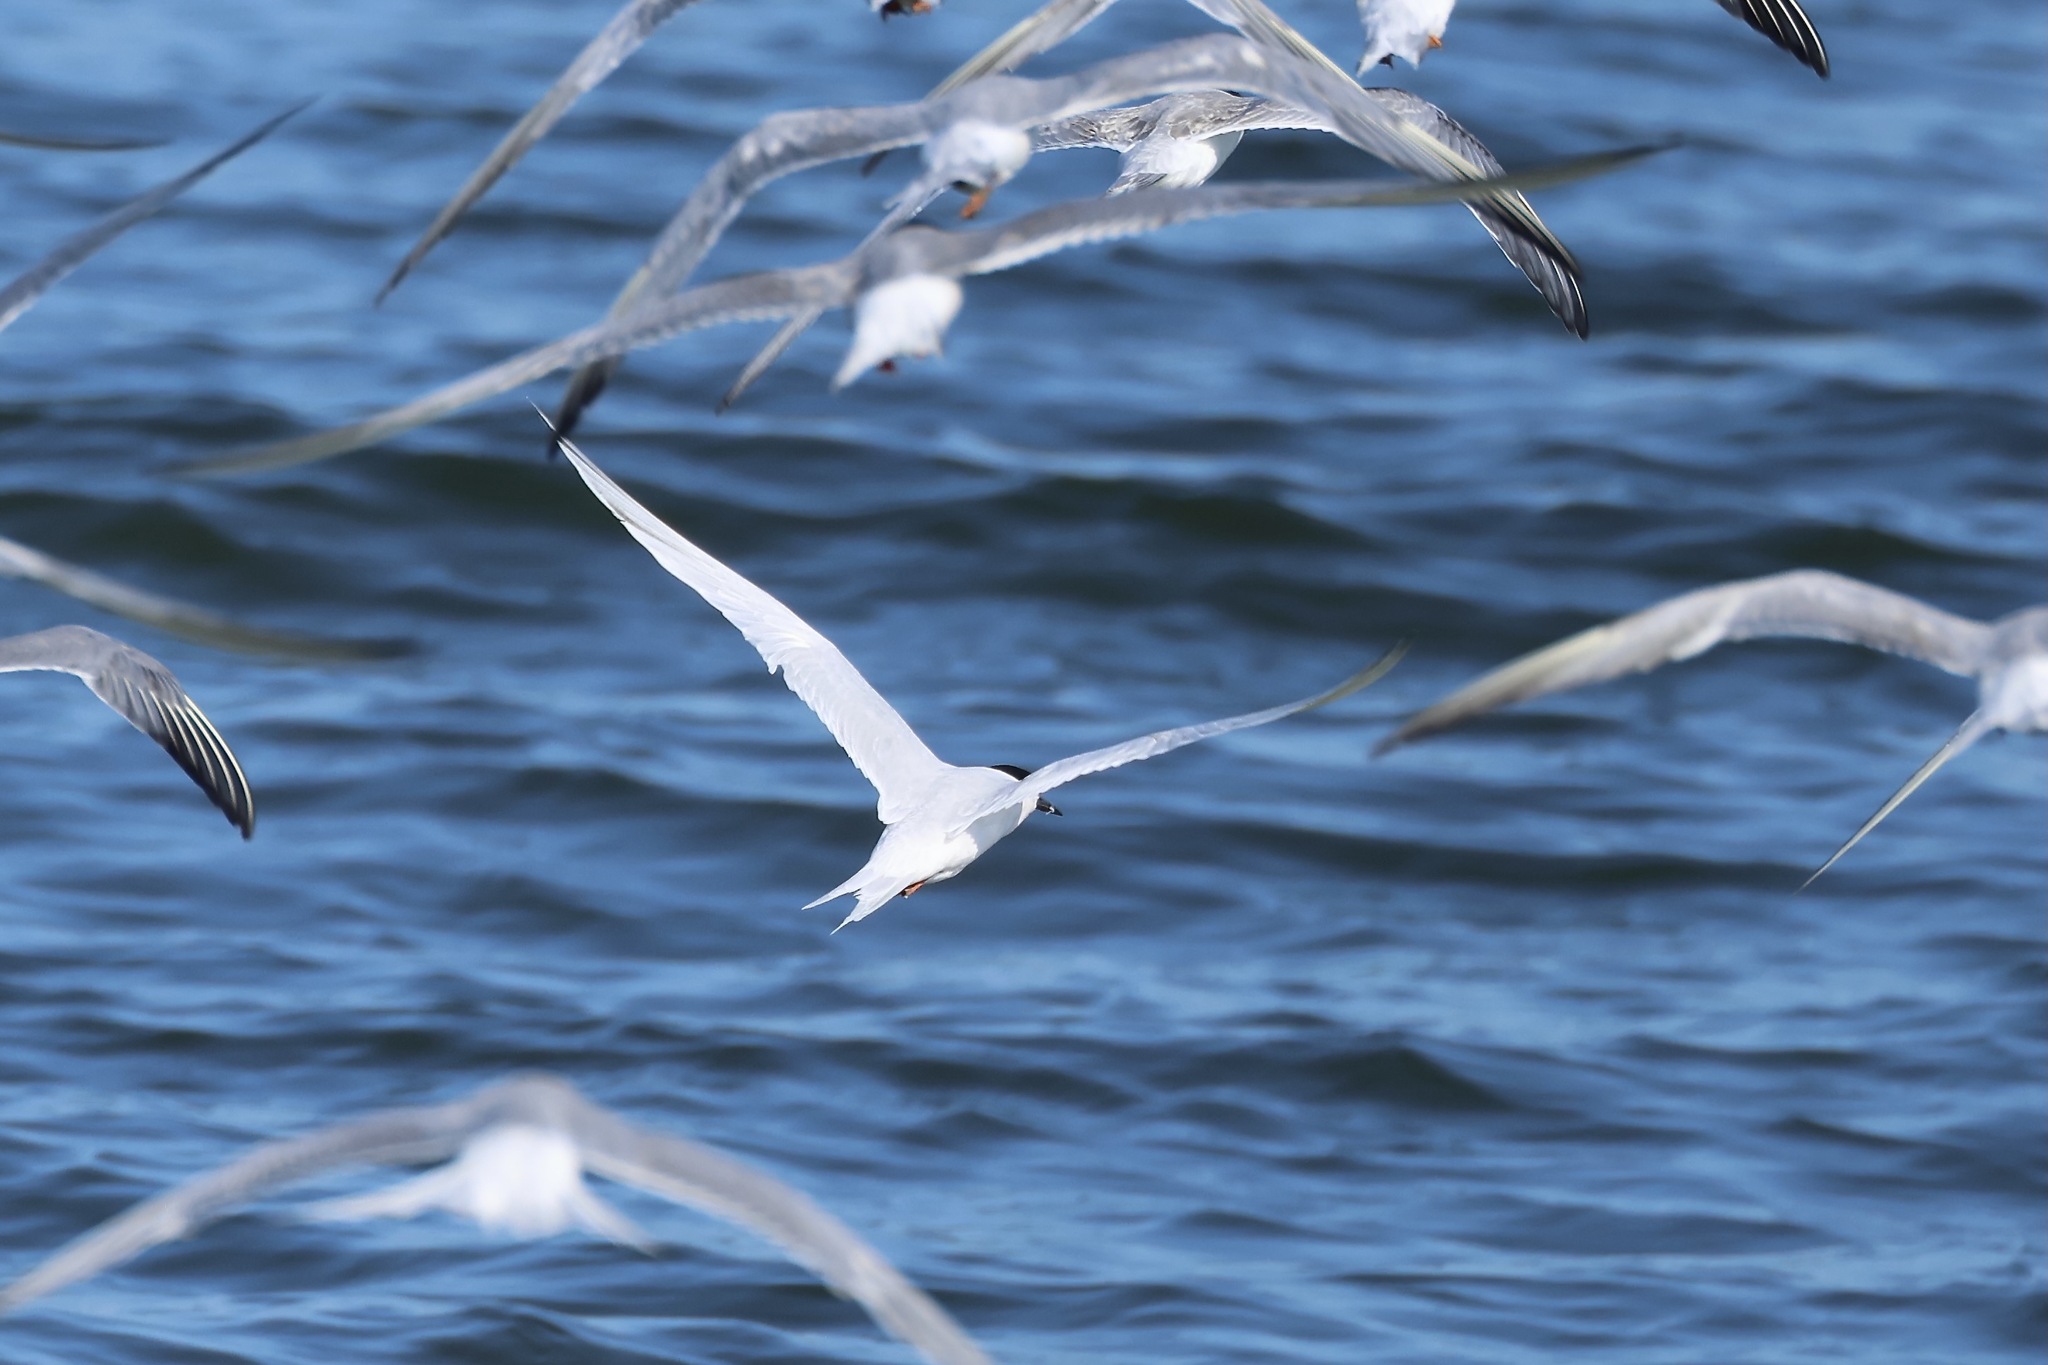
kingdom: Animalia
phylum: Chordata
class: Aves
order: Charadriiformes
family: Laridae
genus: Sterna
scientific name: Sterna dougallii
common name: Roseate tern
